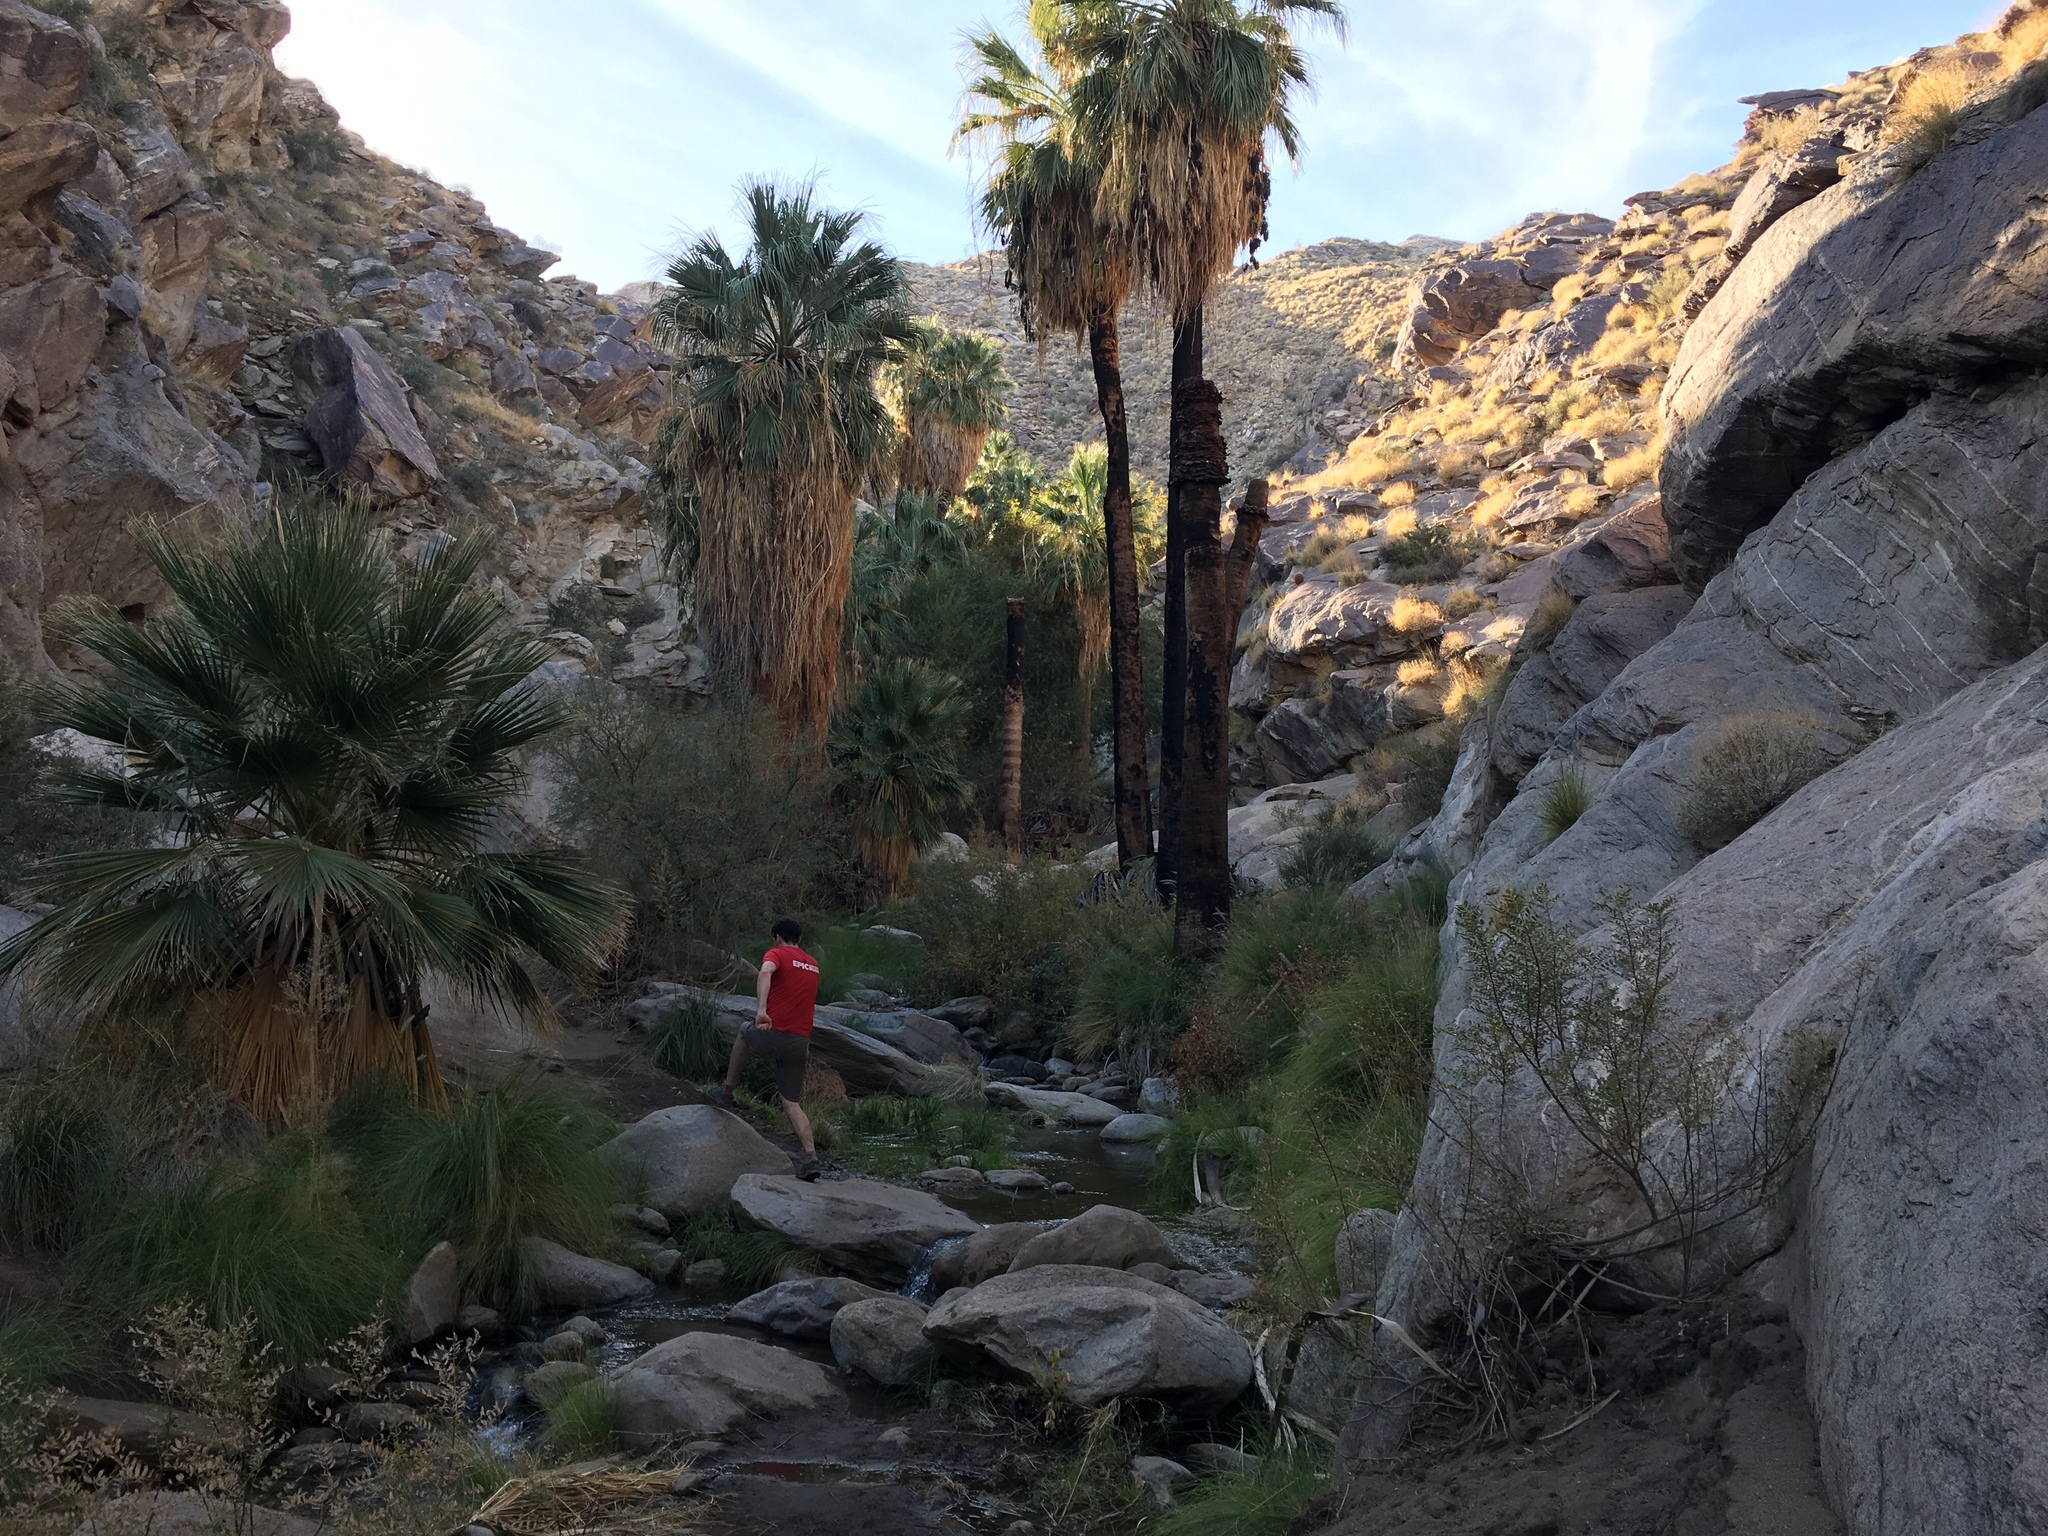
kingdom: Plantae
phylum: Tracheophyta
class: Liliopsida
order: Arecales
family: Arecaceae
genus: Washingtonia
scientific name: Washingtonia filifera
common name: California fan palm
